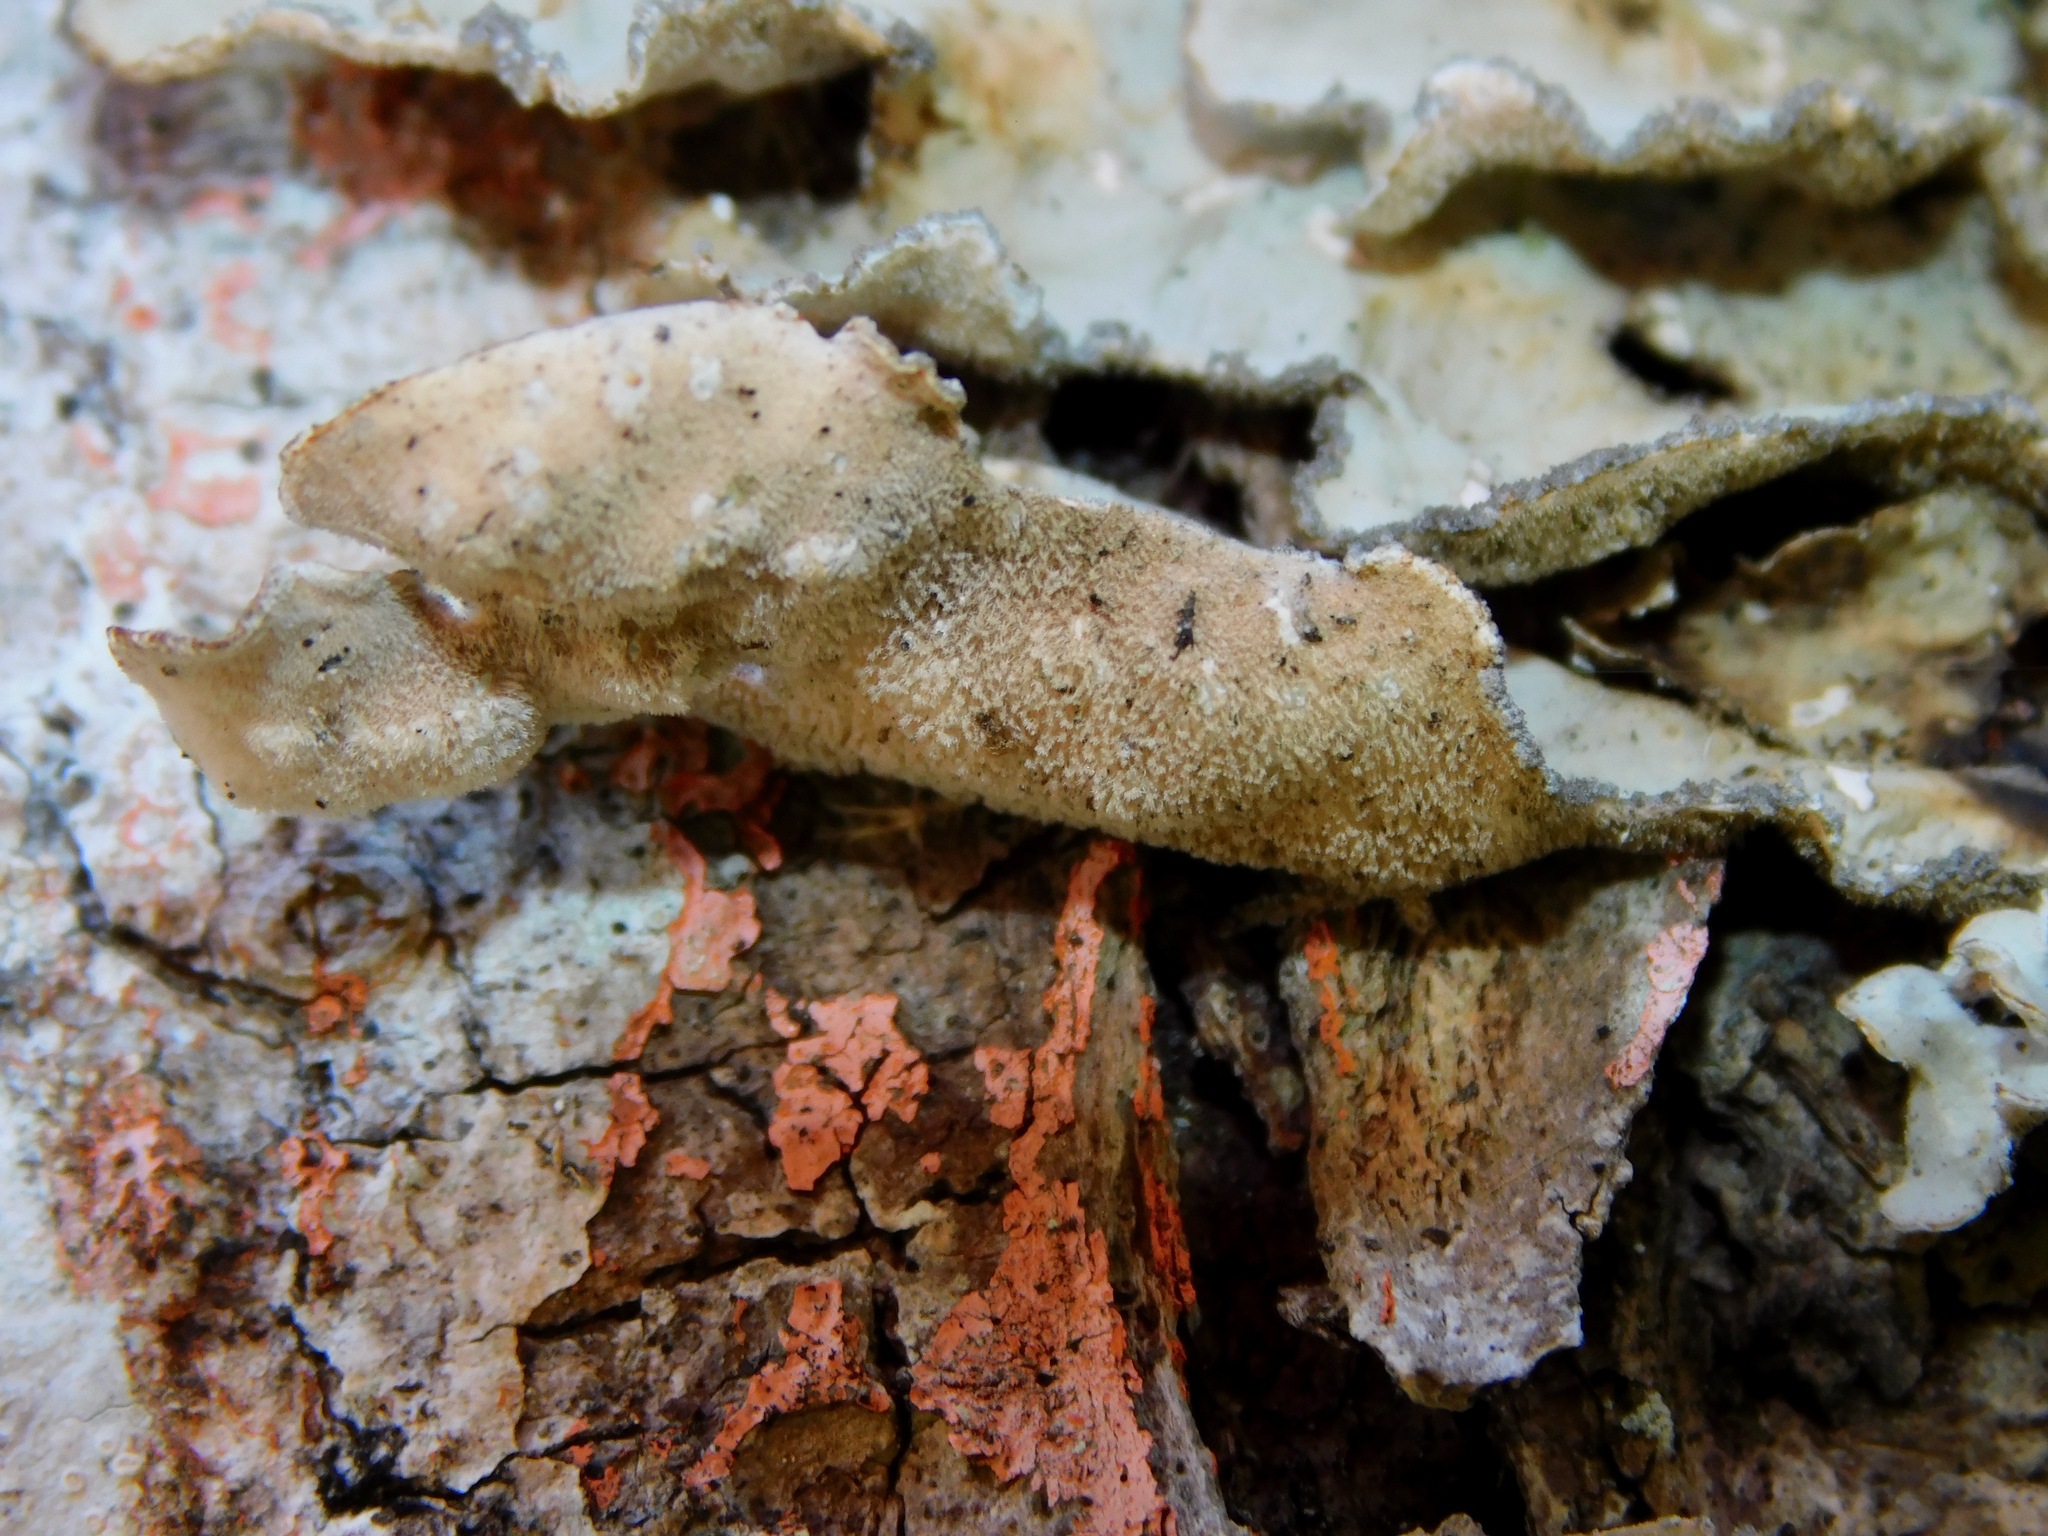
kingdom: Fungi
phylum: Ascomycota
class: Lecanoromycetes
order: Peltigerales
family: Lobariaceae
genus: Lobarina
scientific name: Lobarina scrobiculata
